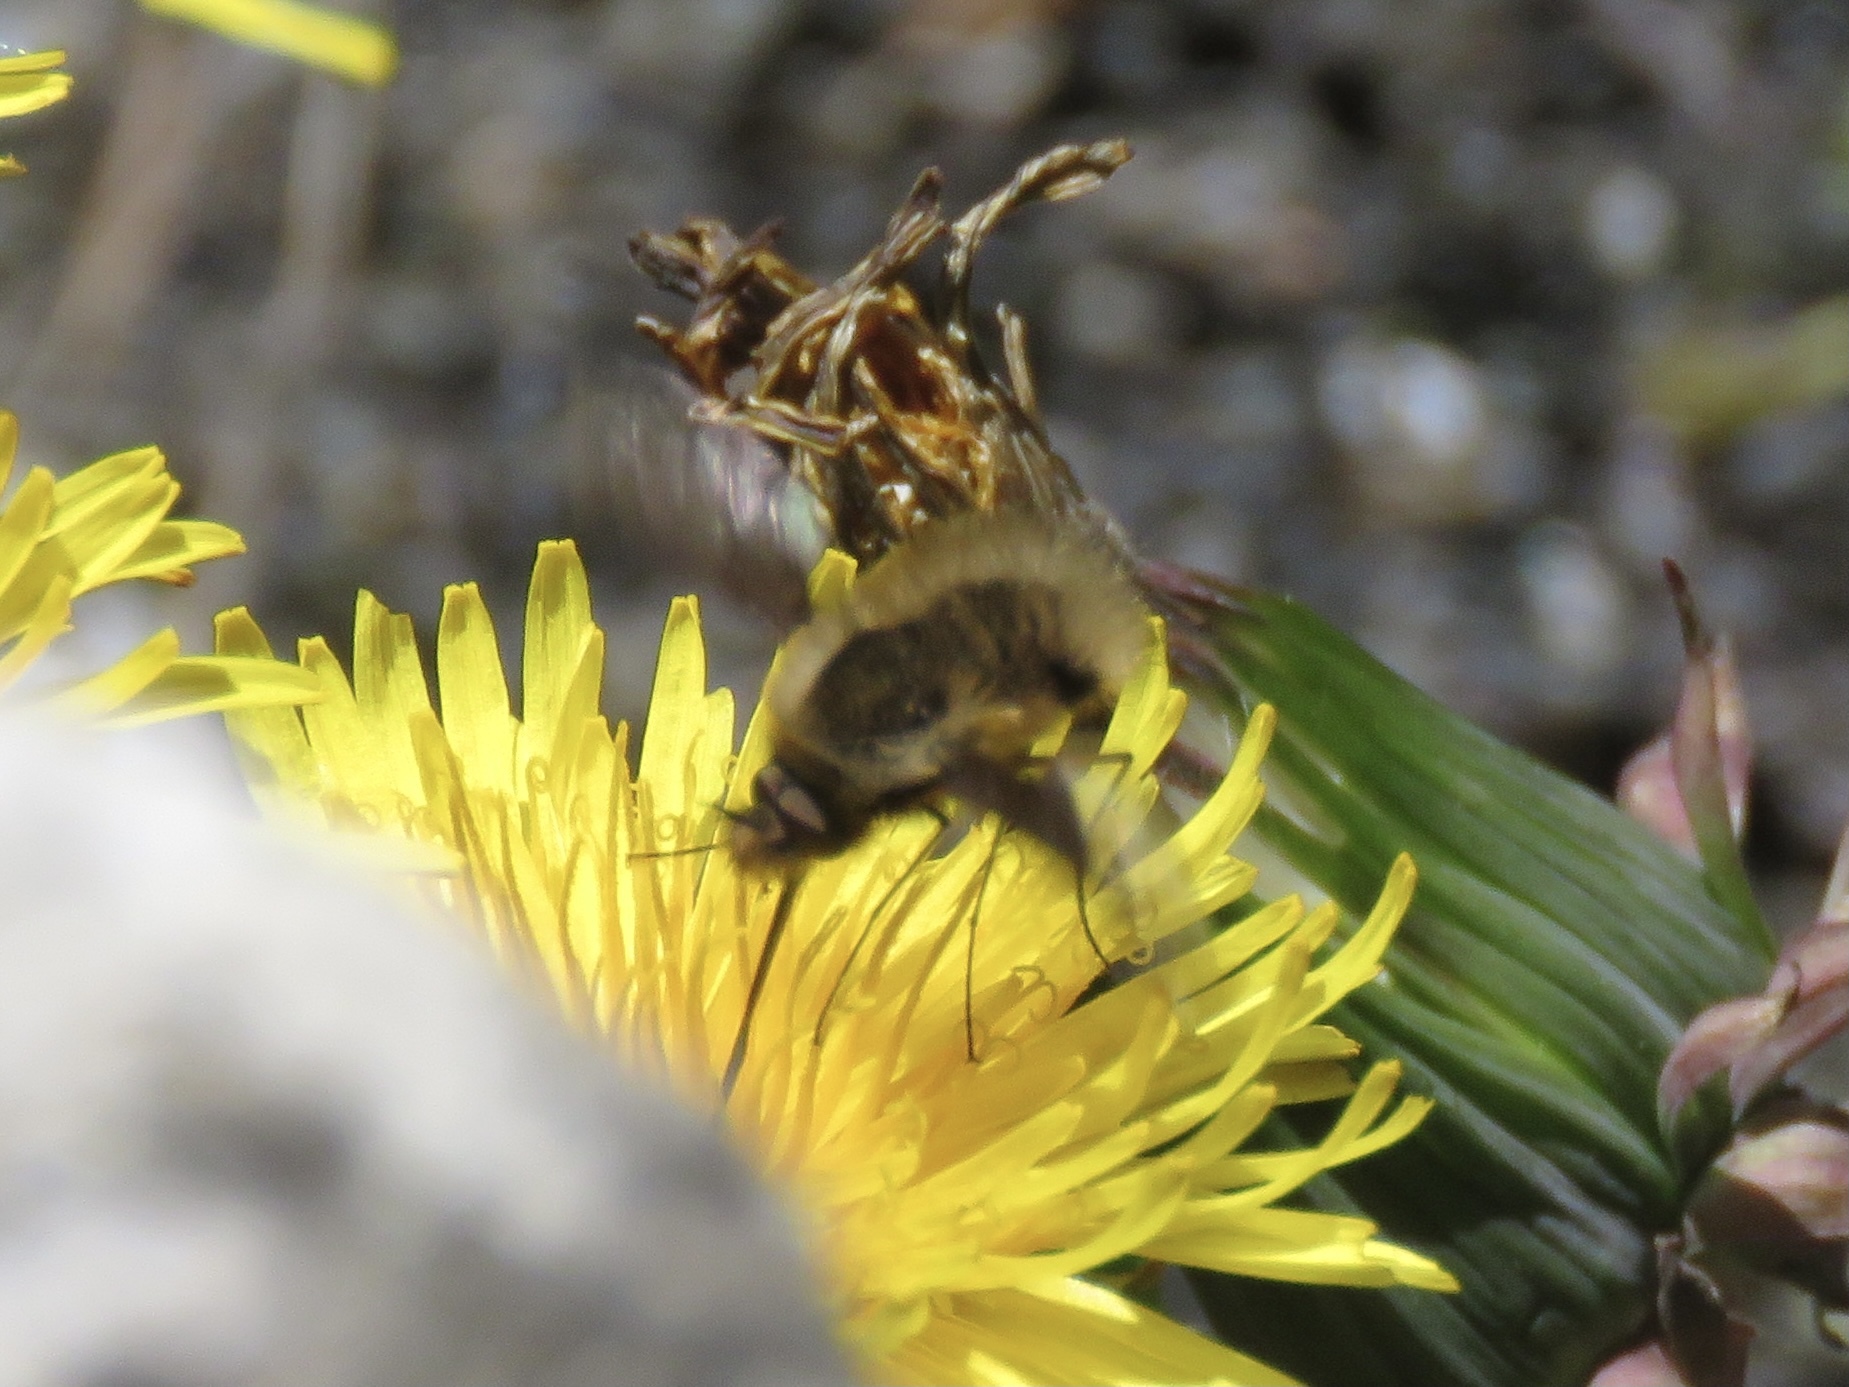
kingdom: Animalia
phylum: Arthropoda
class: Insecta
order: Diptera
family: Bombyliidae
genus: Bombylius
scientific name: Bombylius major
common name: Bee fly
